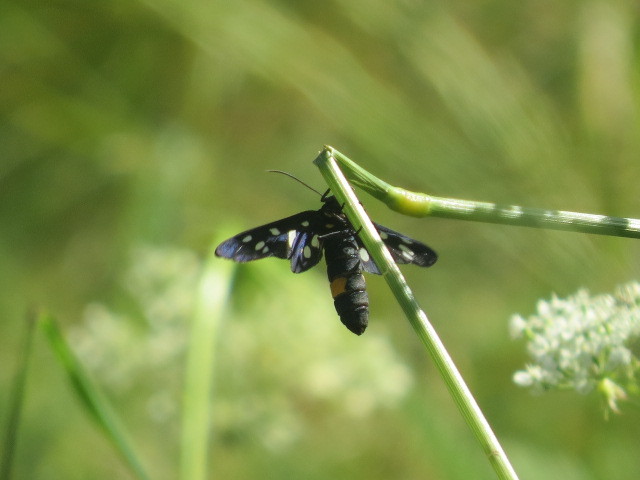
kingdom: Animalia
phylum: Arthropoda
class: Insecta
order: Lepidoptera
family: Erebidae
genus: Amata
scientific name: Amata phegea
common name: Nine-spotted
